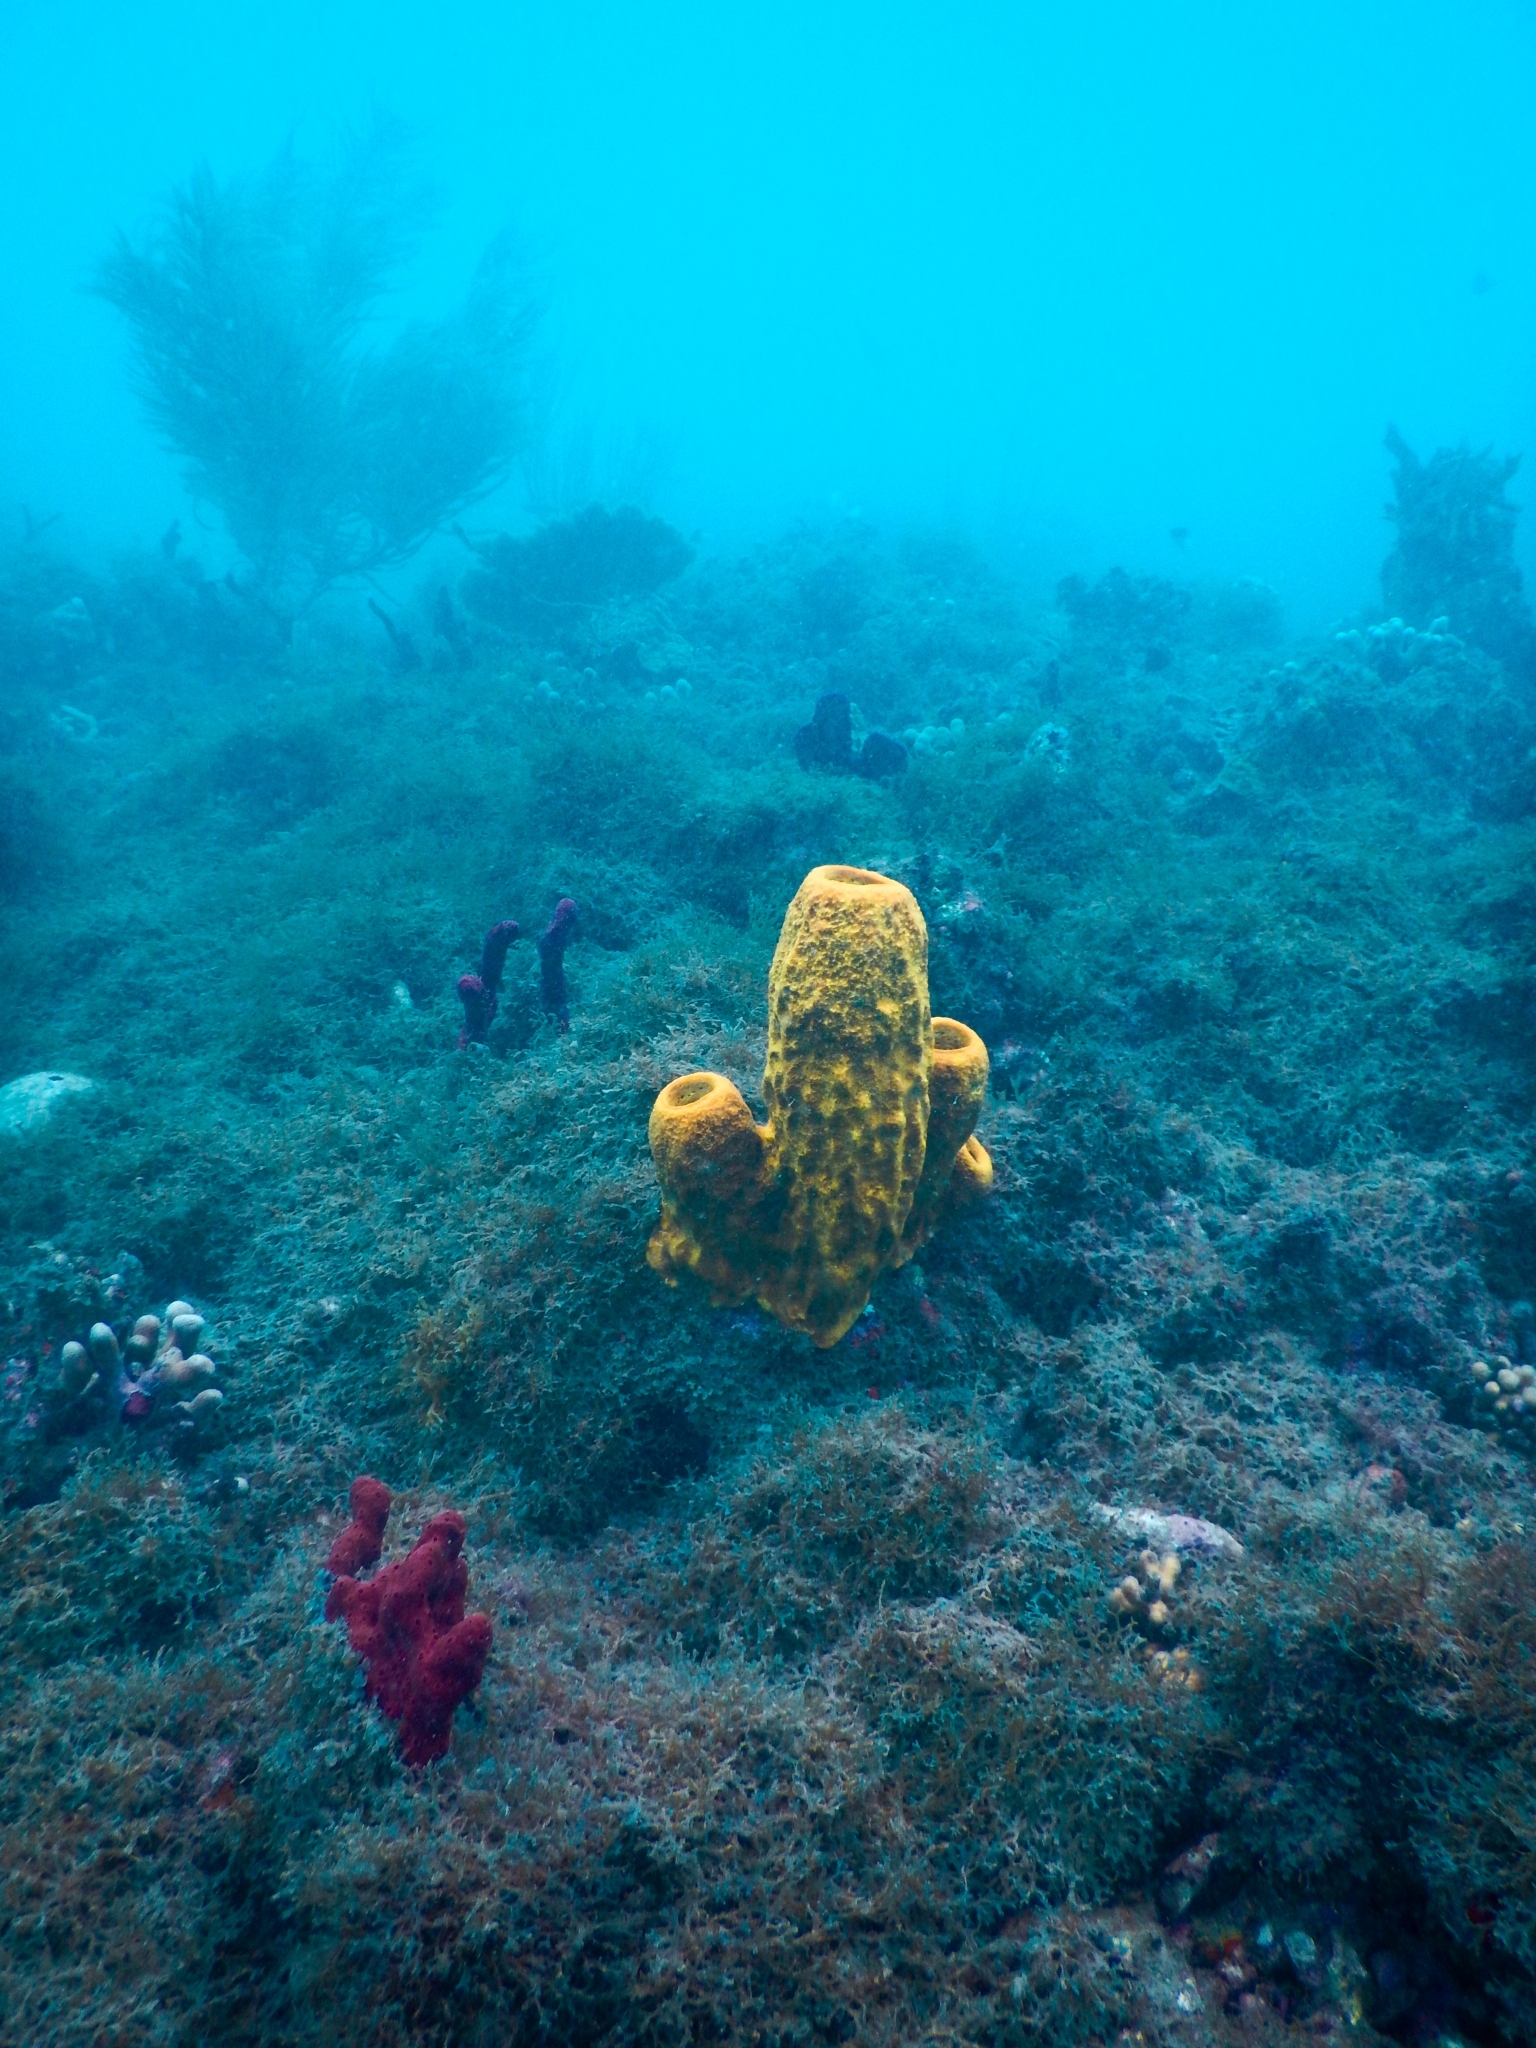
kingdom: Animalia
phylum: Porifera
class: Demospongiae
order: Verongiida
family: Aplysinidae
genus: Aplysina
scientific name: Aplysina fistularis
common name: Candle sponge
